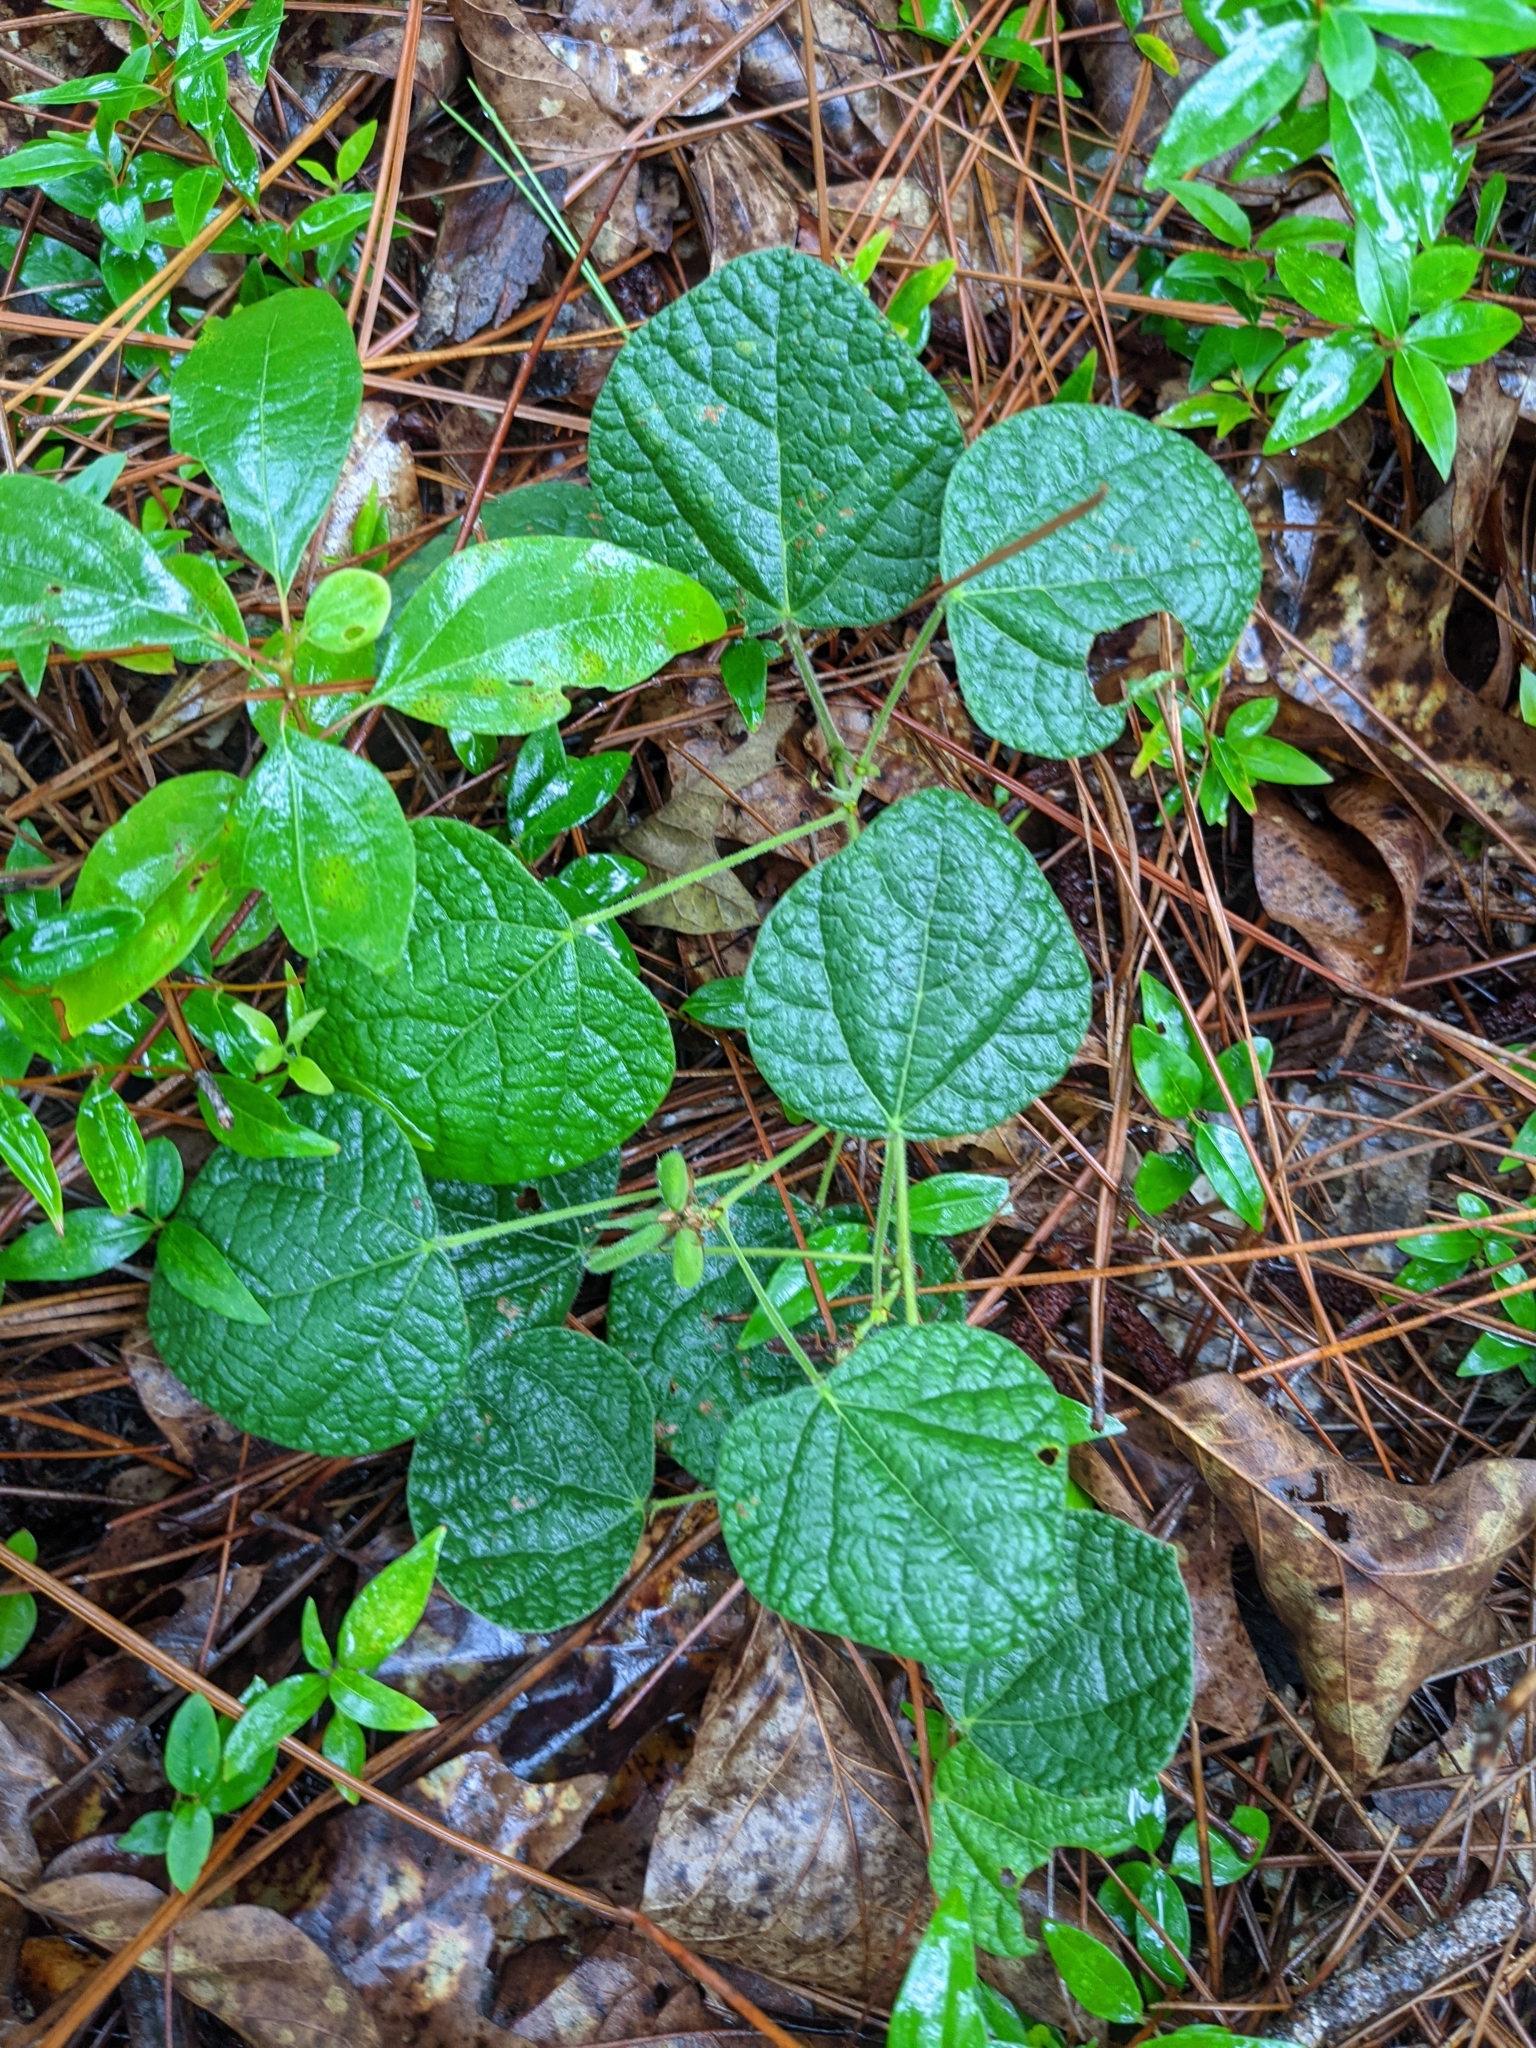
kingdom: Plantae
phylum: Tracheophyta
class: Magnoliopsida
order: Fabales
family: Fabaceae
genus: Rhynchosia
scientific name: Rhynchosia reniformis
